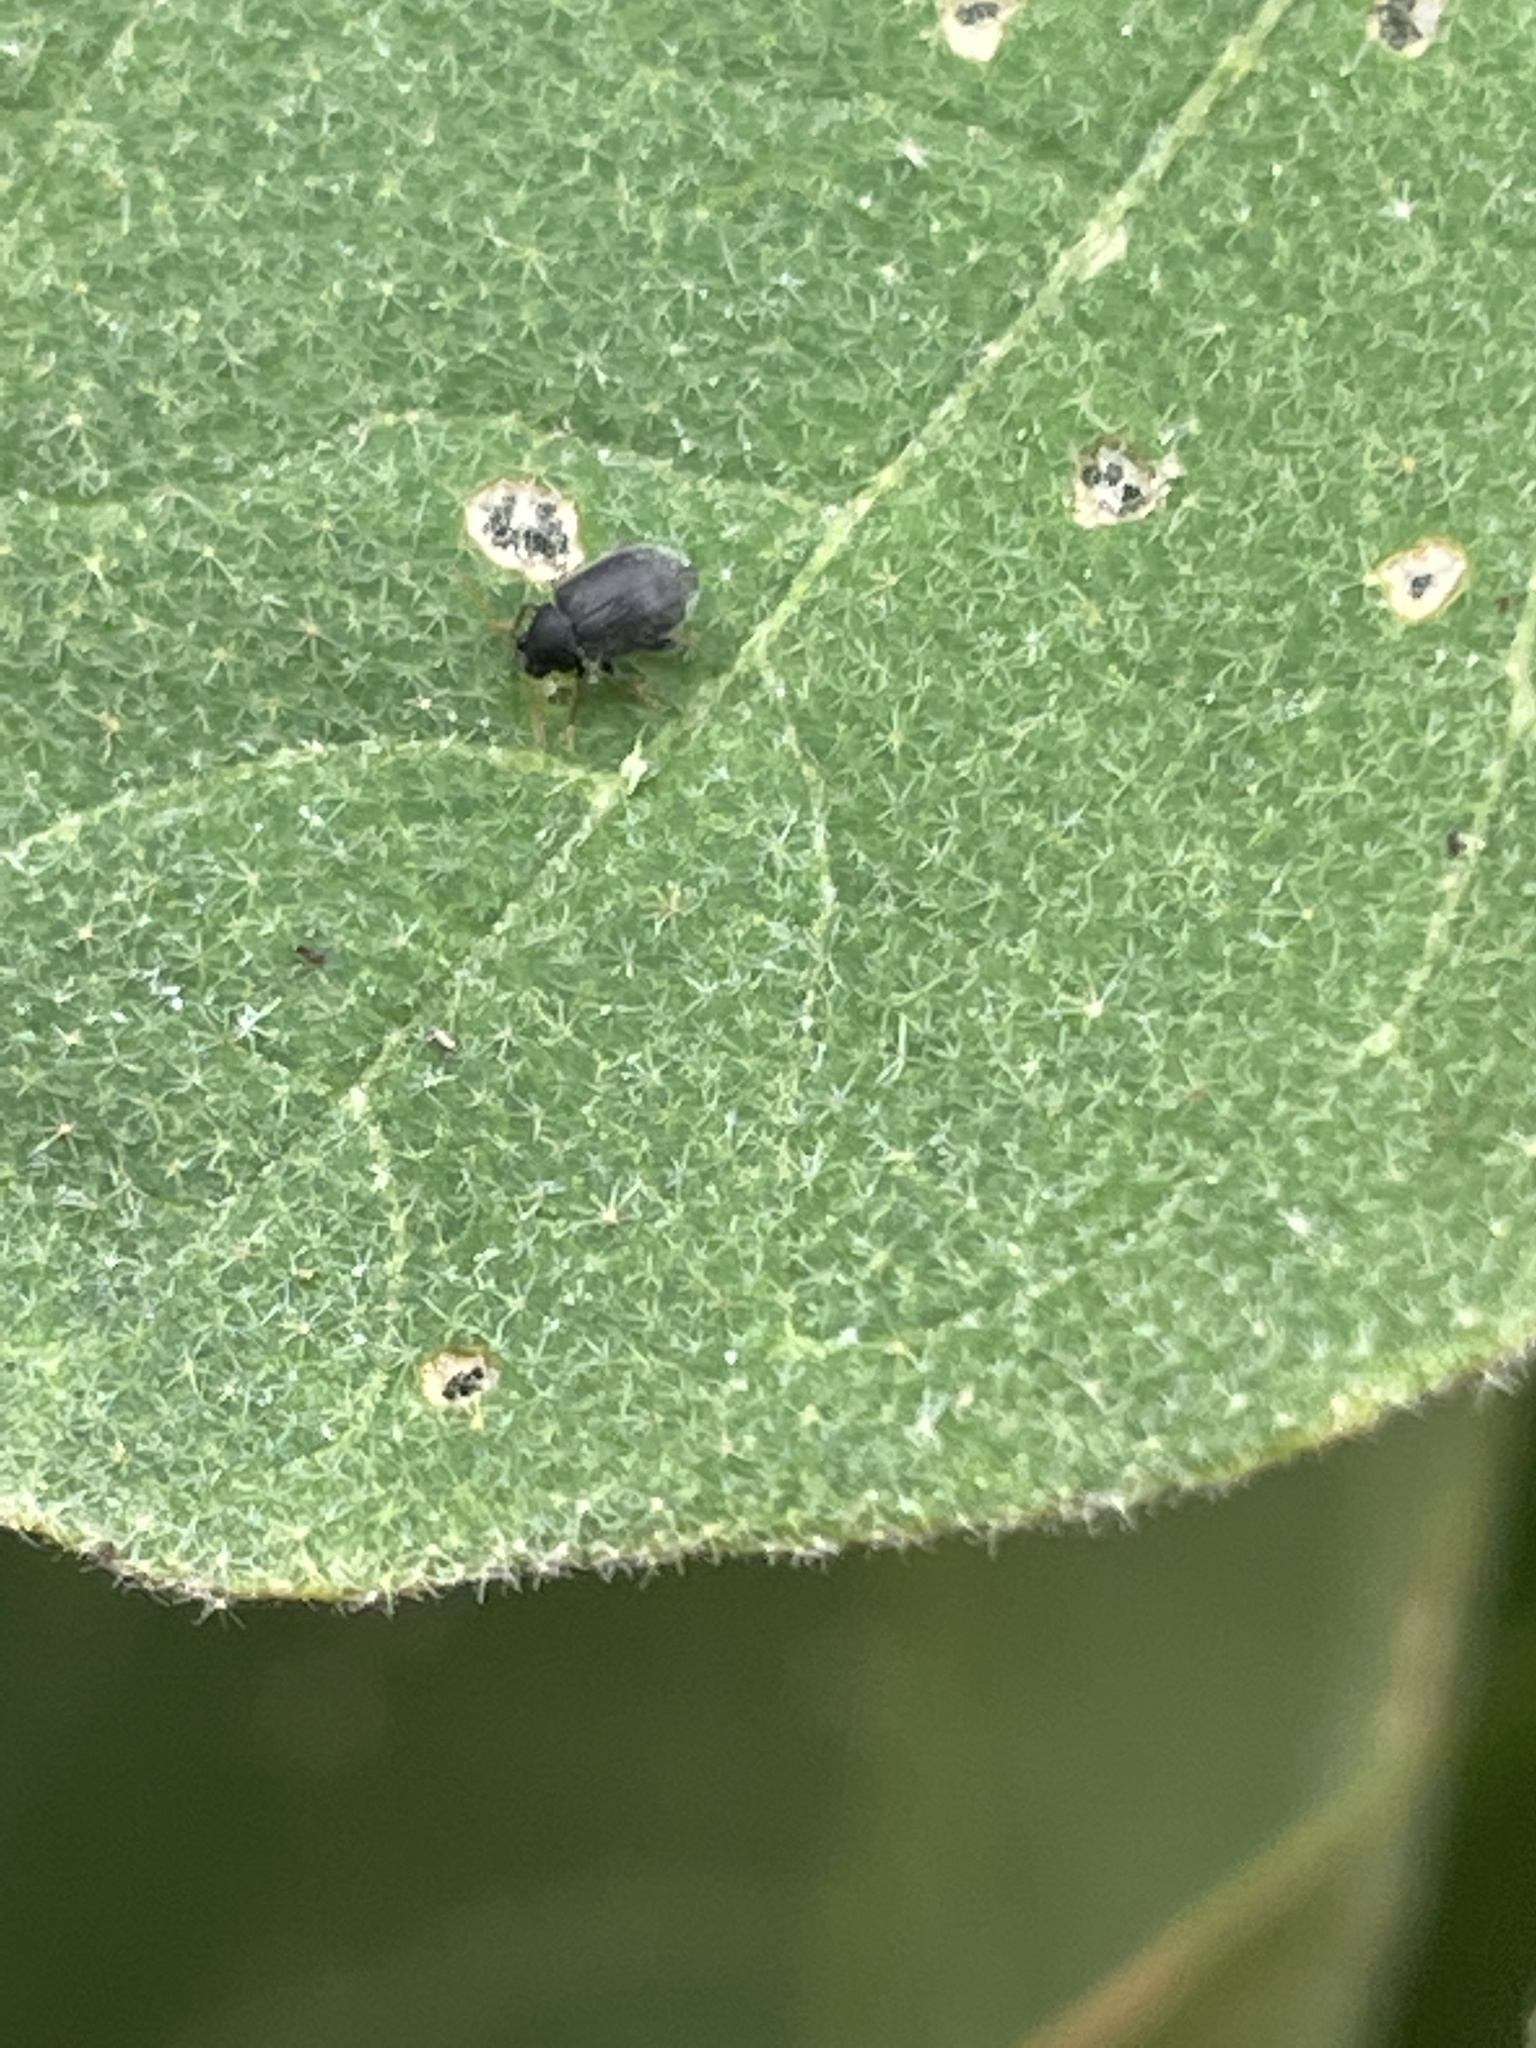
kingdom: Animalia
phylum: Arthropoda
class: Insecta
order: Coleoptera
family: Chrysomelidae
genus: Epitrix
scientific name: Epitrix fuscula
